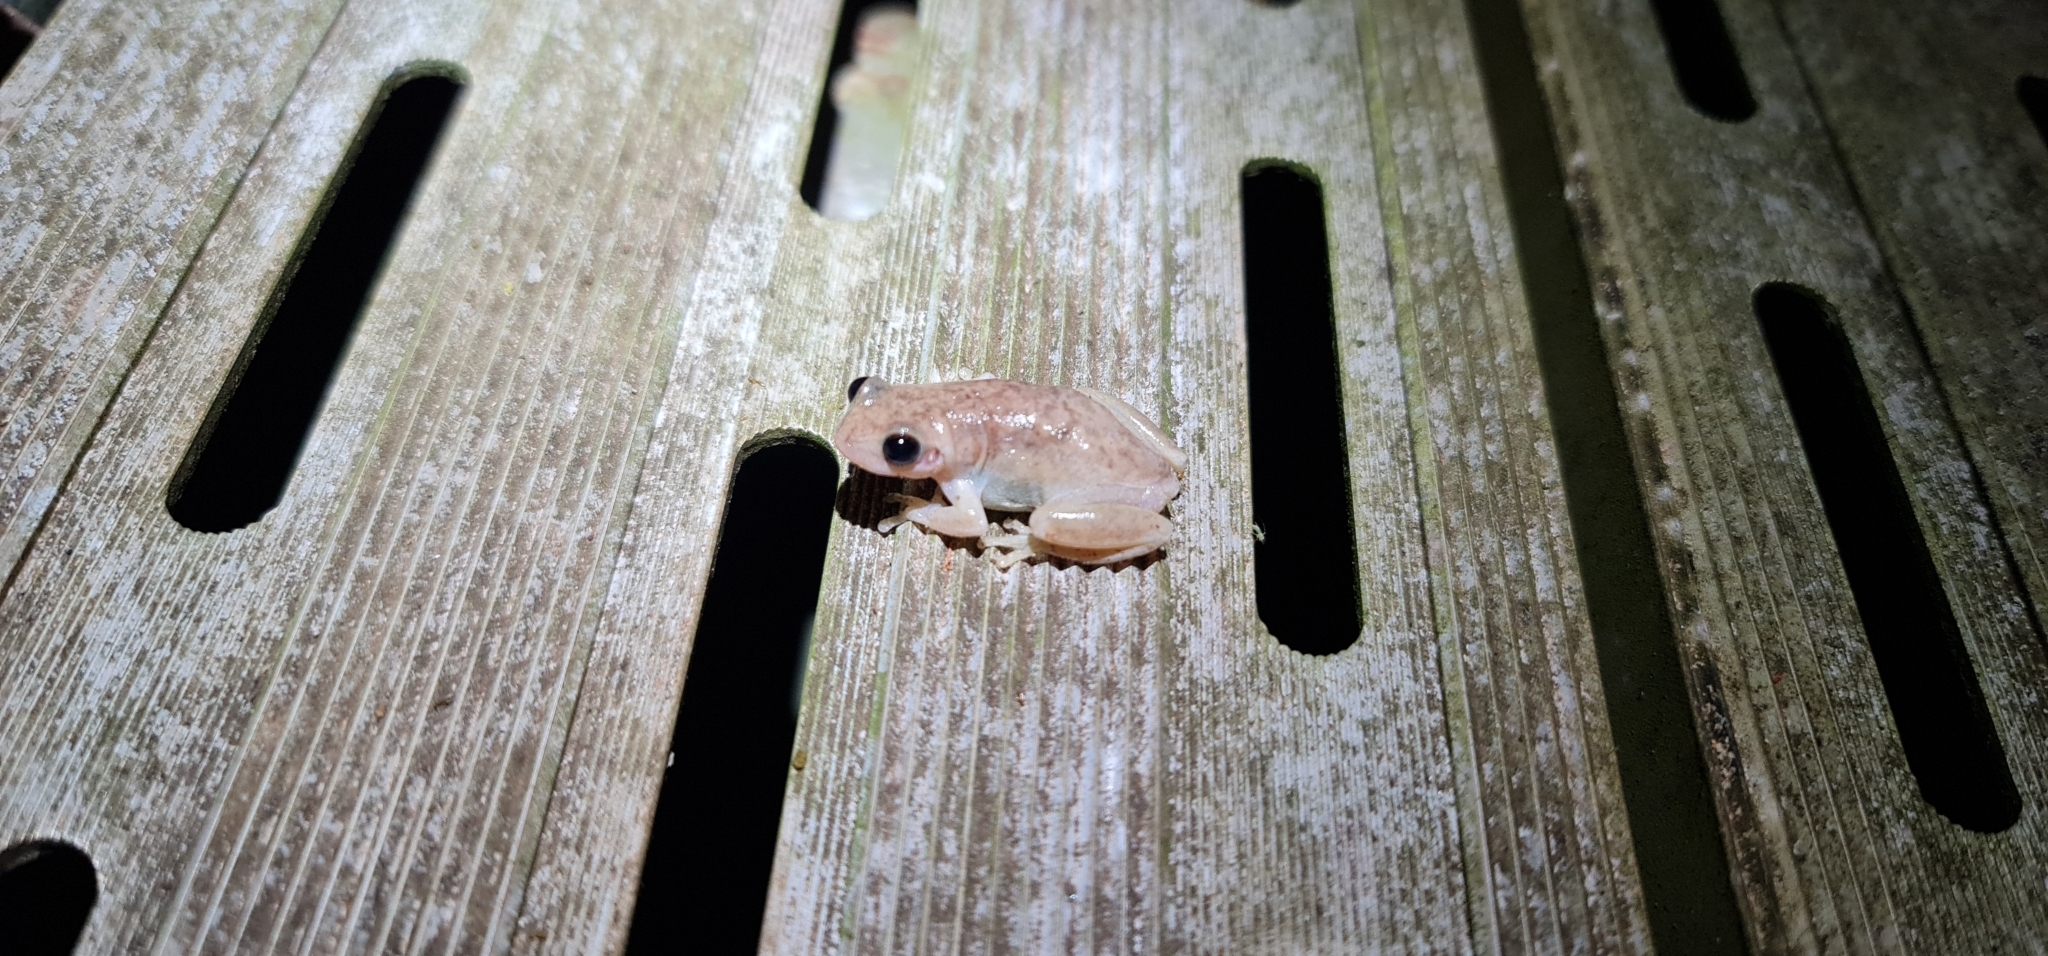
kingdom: Animalia
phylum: Chordata
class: Amphibia
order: Anura
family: Pelodryadidae
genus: Litoria
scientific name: Litoria rubella
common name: Desert tree frog
